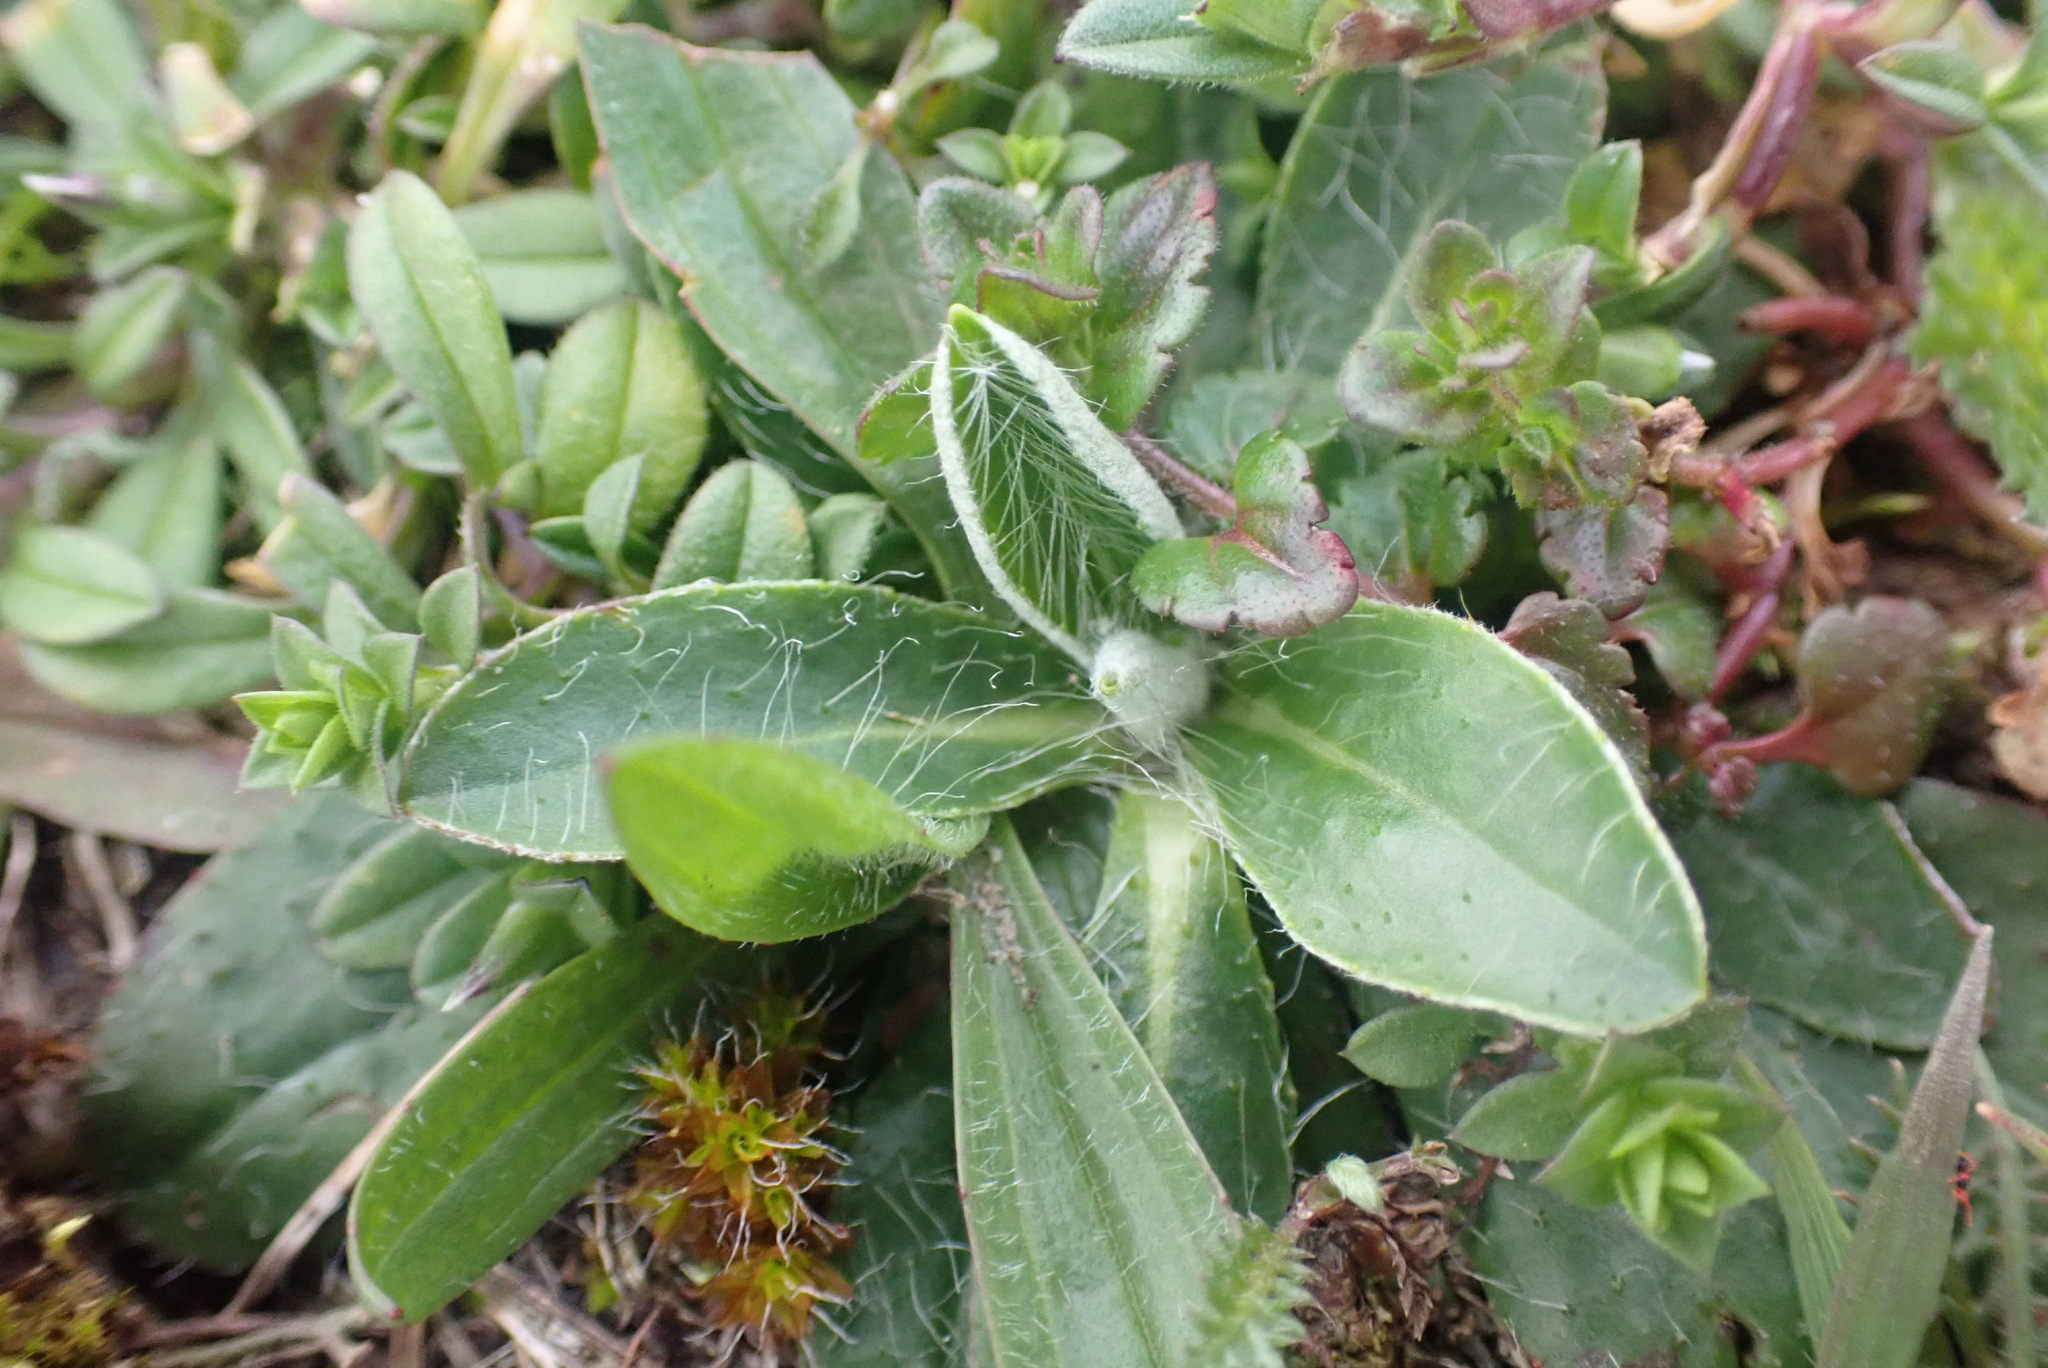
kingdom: Plantae
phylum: Tracheophyta
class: Magnoliopsida
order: Asterales
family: Asteraceae
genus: Pilosella
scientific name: Pilosella officinarum
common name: Mouse-ear hawkweed
